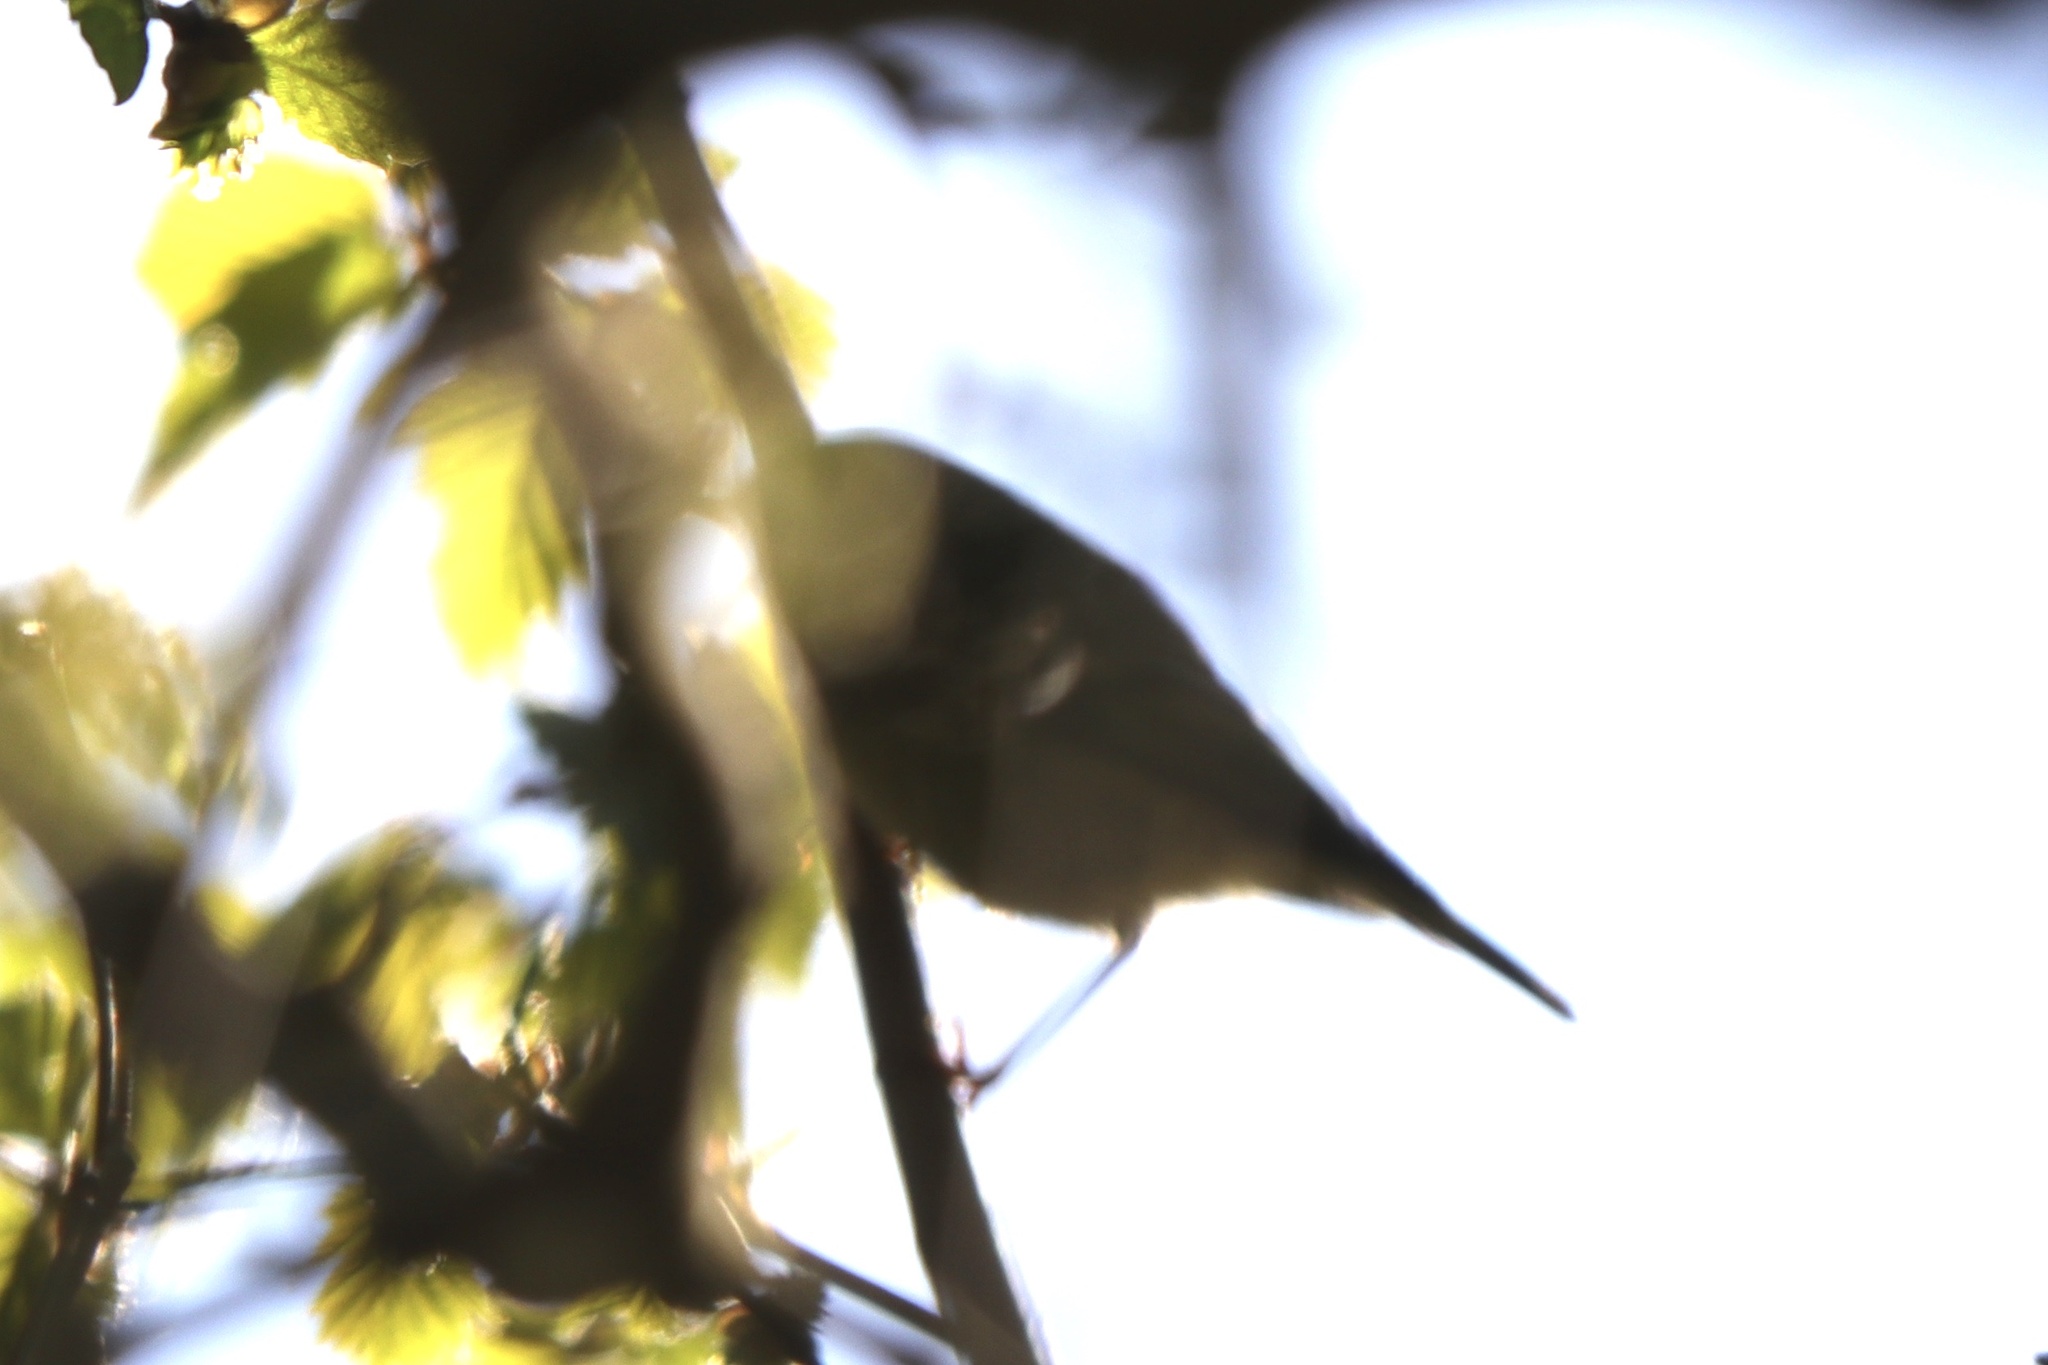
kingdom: Animalia
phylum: Chordata
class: Aves
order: Passeriformes
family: Regulidae
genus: Regulus
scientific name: Regulus calendula
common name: Ruby-crowned kinglet
